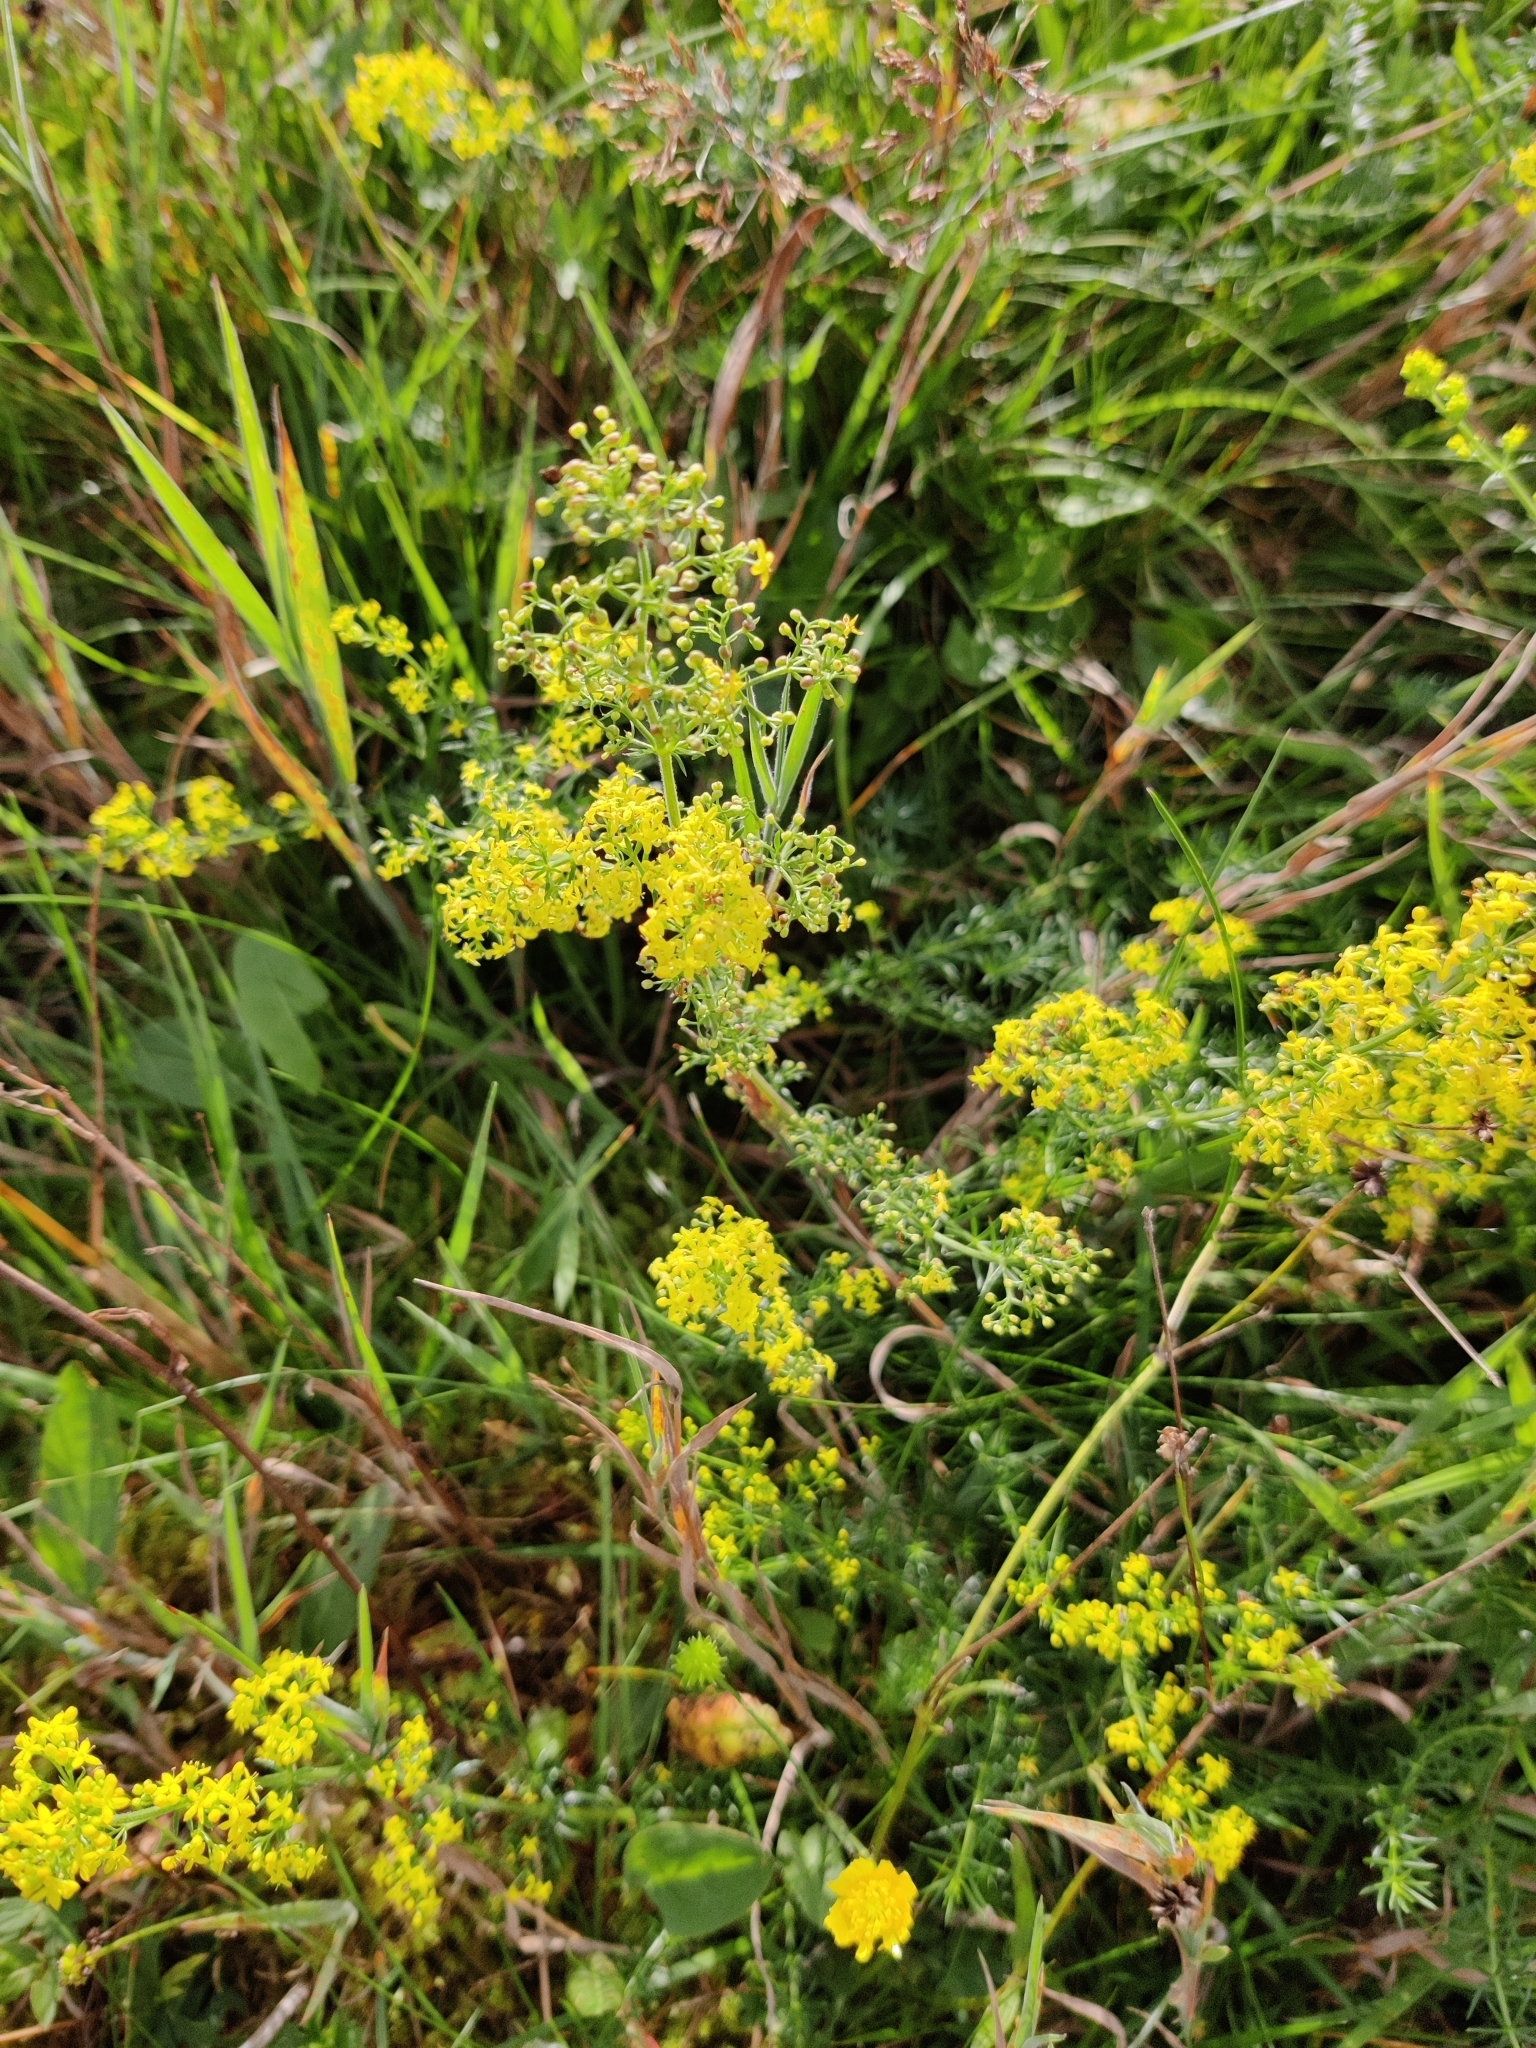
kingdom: Plantae
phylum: Tracheophyta
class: Magnoliopsida
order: Gentianales
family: Rubiaceae
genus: Galium
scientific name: Galium verum
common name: Lady's bedstraw
